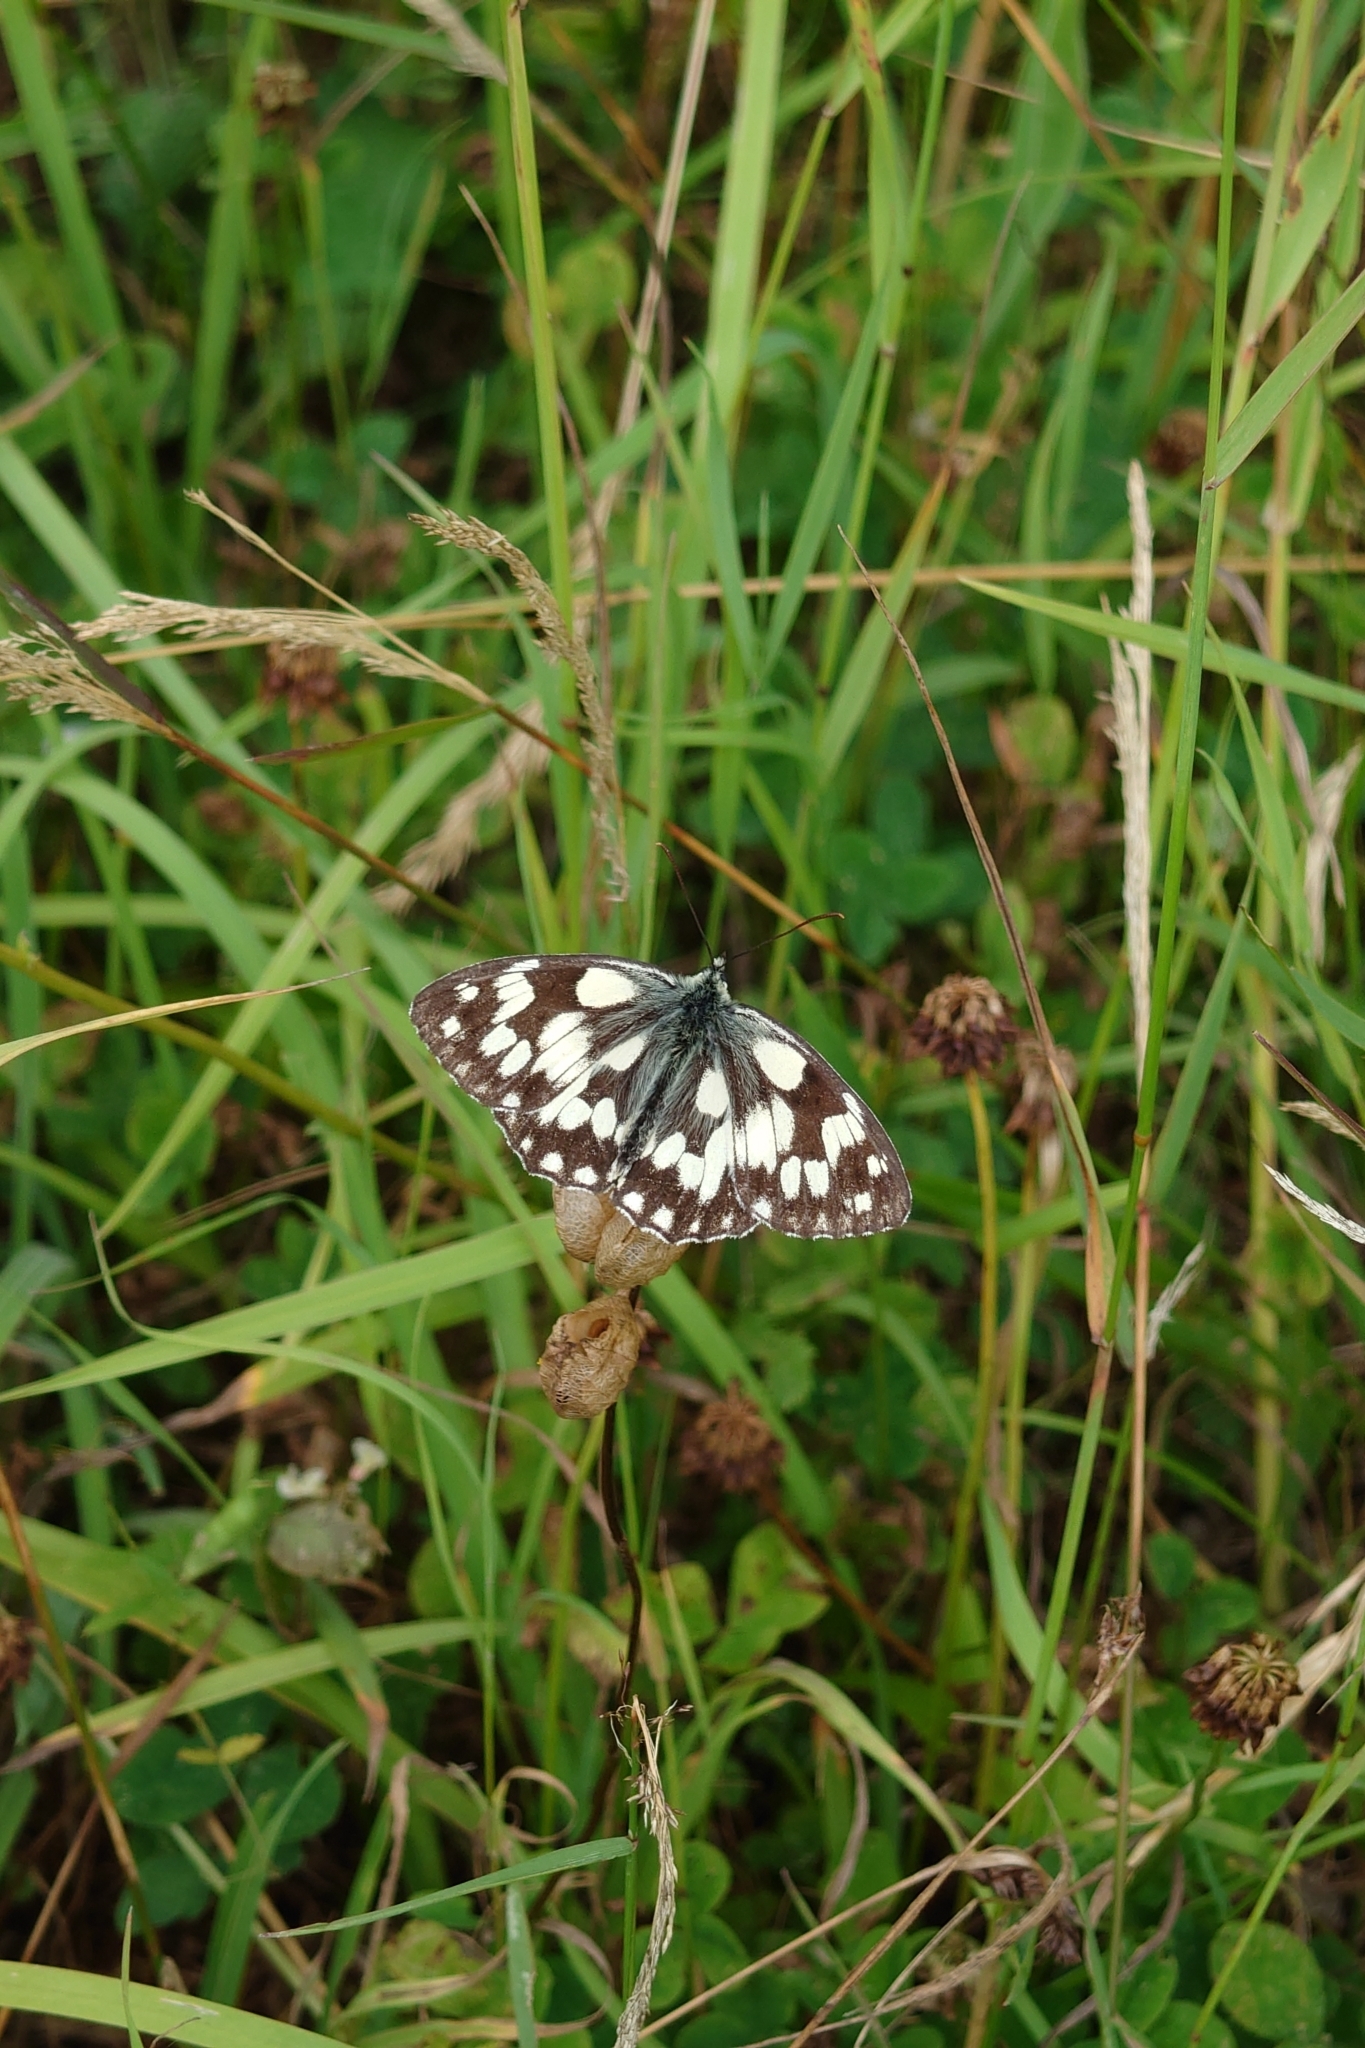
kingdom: Animalia
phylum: Arthropoda
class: Insecta
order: Lepidoptera
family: Nymphalidae
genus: Melanargia
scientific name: Melanargia galathea
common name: Marbled white
